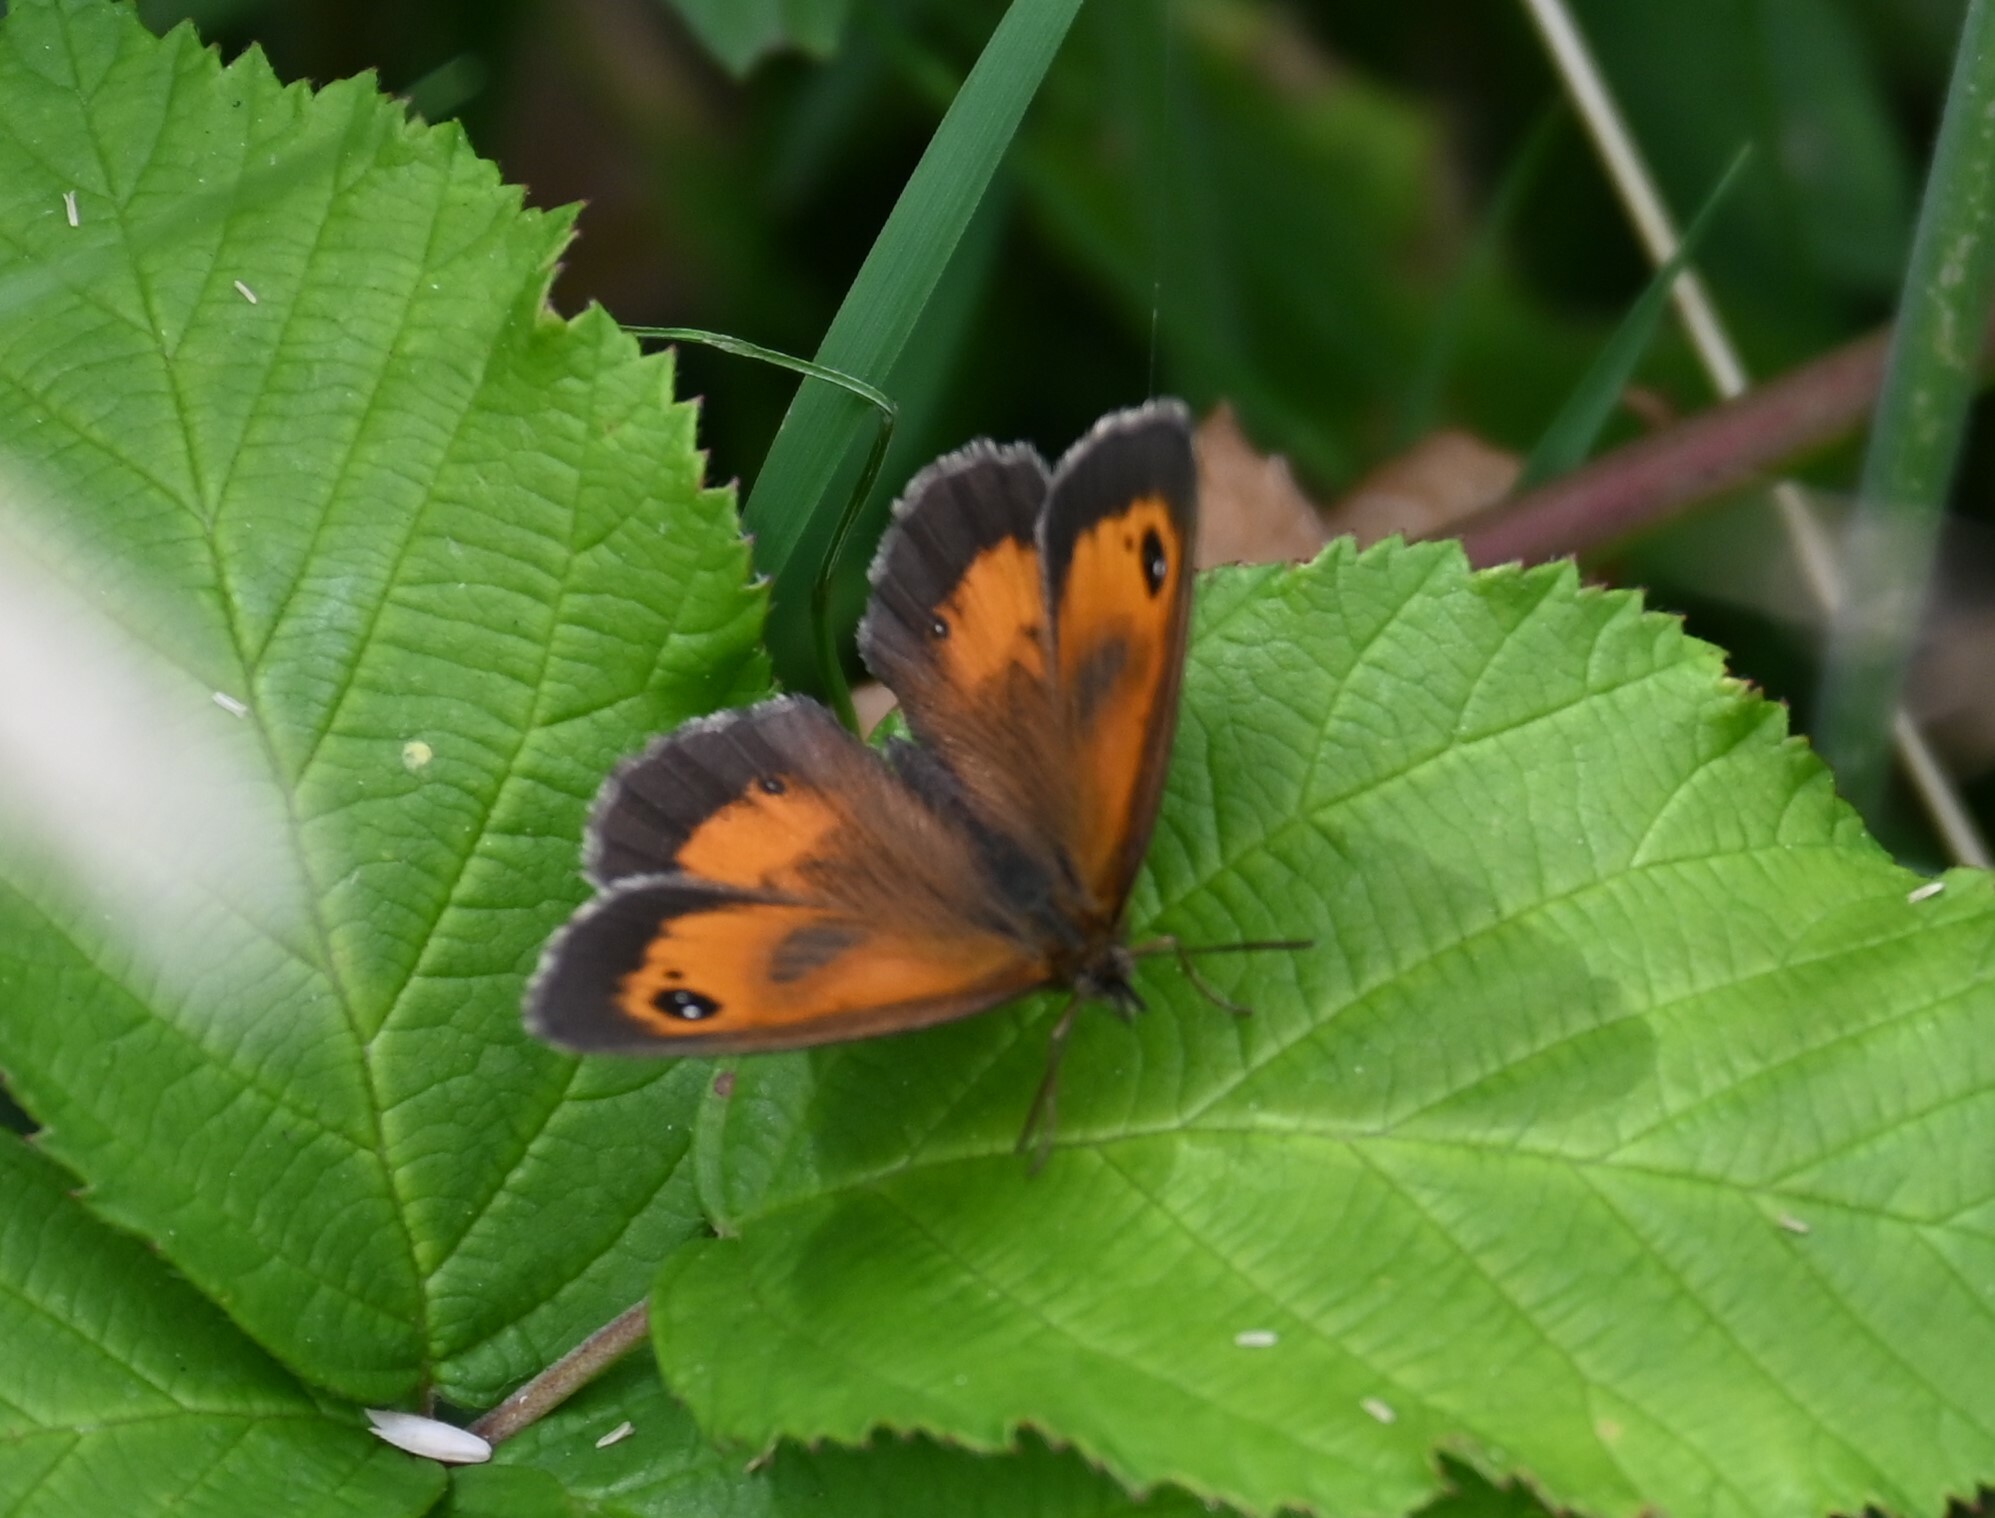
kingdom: Animalia
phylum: Arthropoda
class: Insecta
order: Lepidoptera
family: Nymphalidae
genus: Pyronia
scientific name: Pyronia tithonus
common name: Gatekeeper
